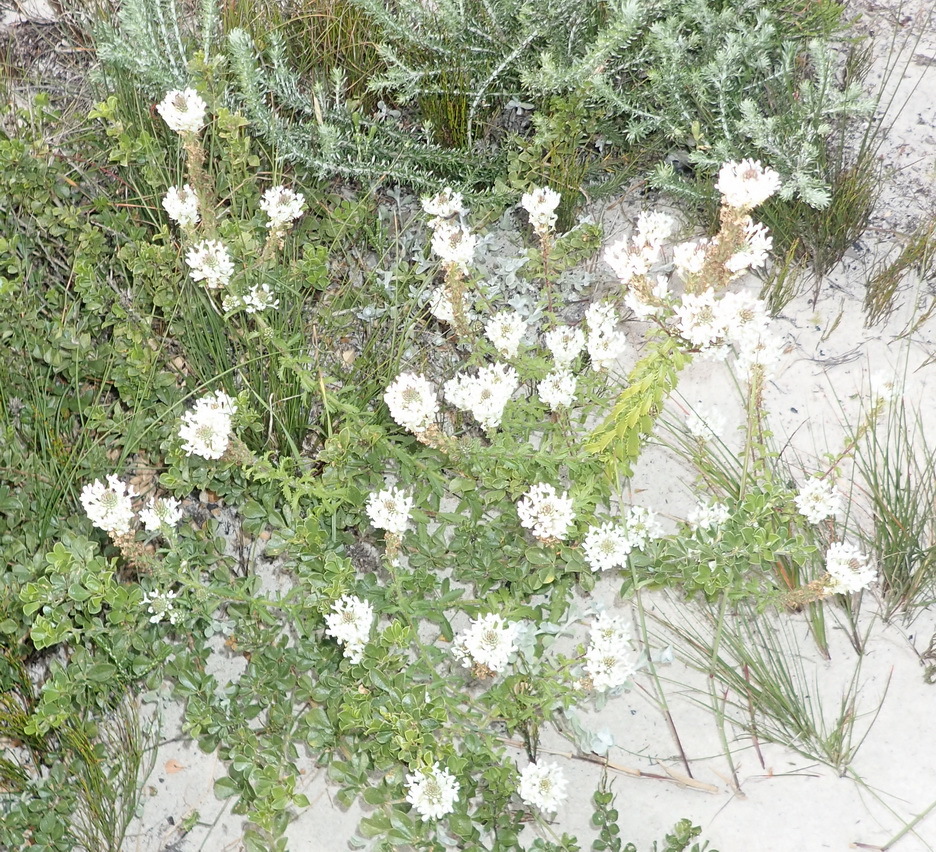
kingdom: Plantae
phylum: Tracheophyta
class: Magnoliopsida
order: Lamiales
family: Scrophulariaceae
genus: Dischisma
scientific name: Dischisma ciliatum
